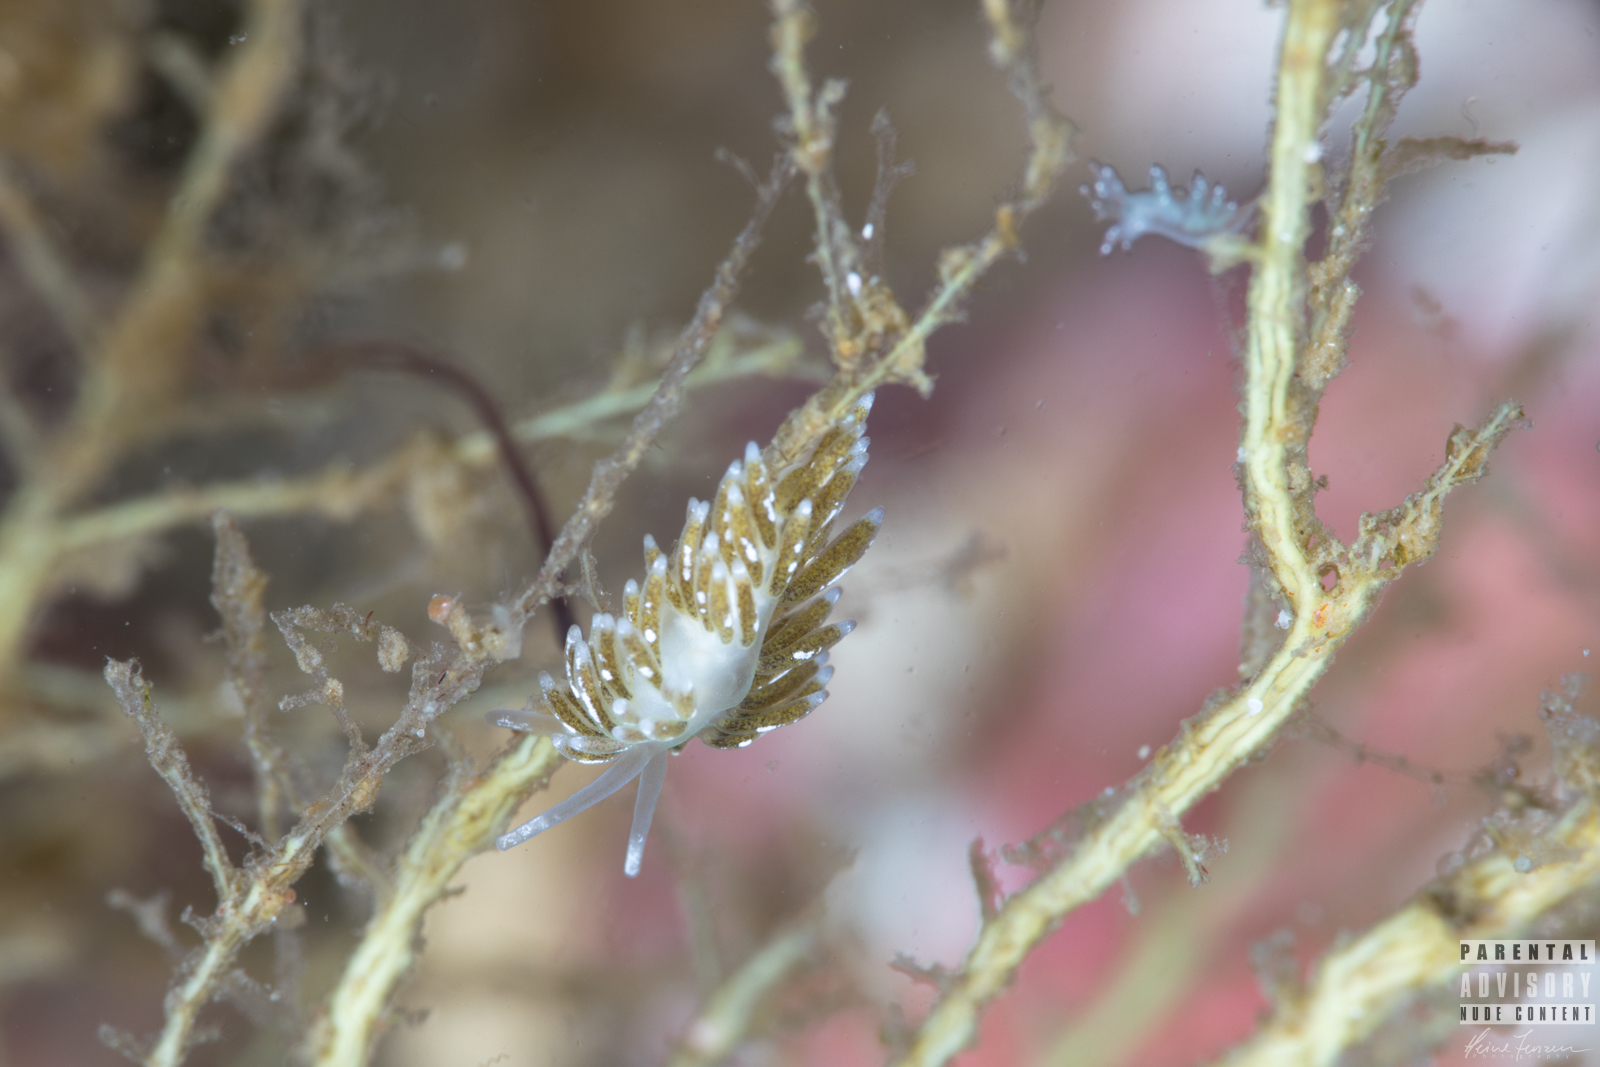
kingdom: Animalia
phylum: Mollusca
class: Gastropoda
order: Nudibranchia
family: Trinchesiidae
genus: Zelentia
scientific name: Zelentia pustulata
